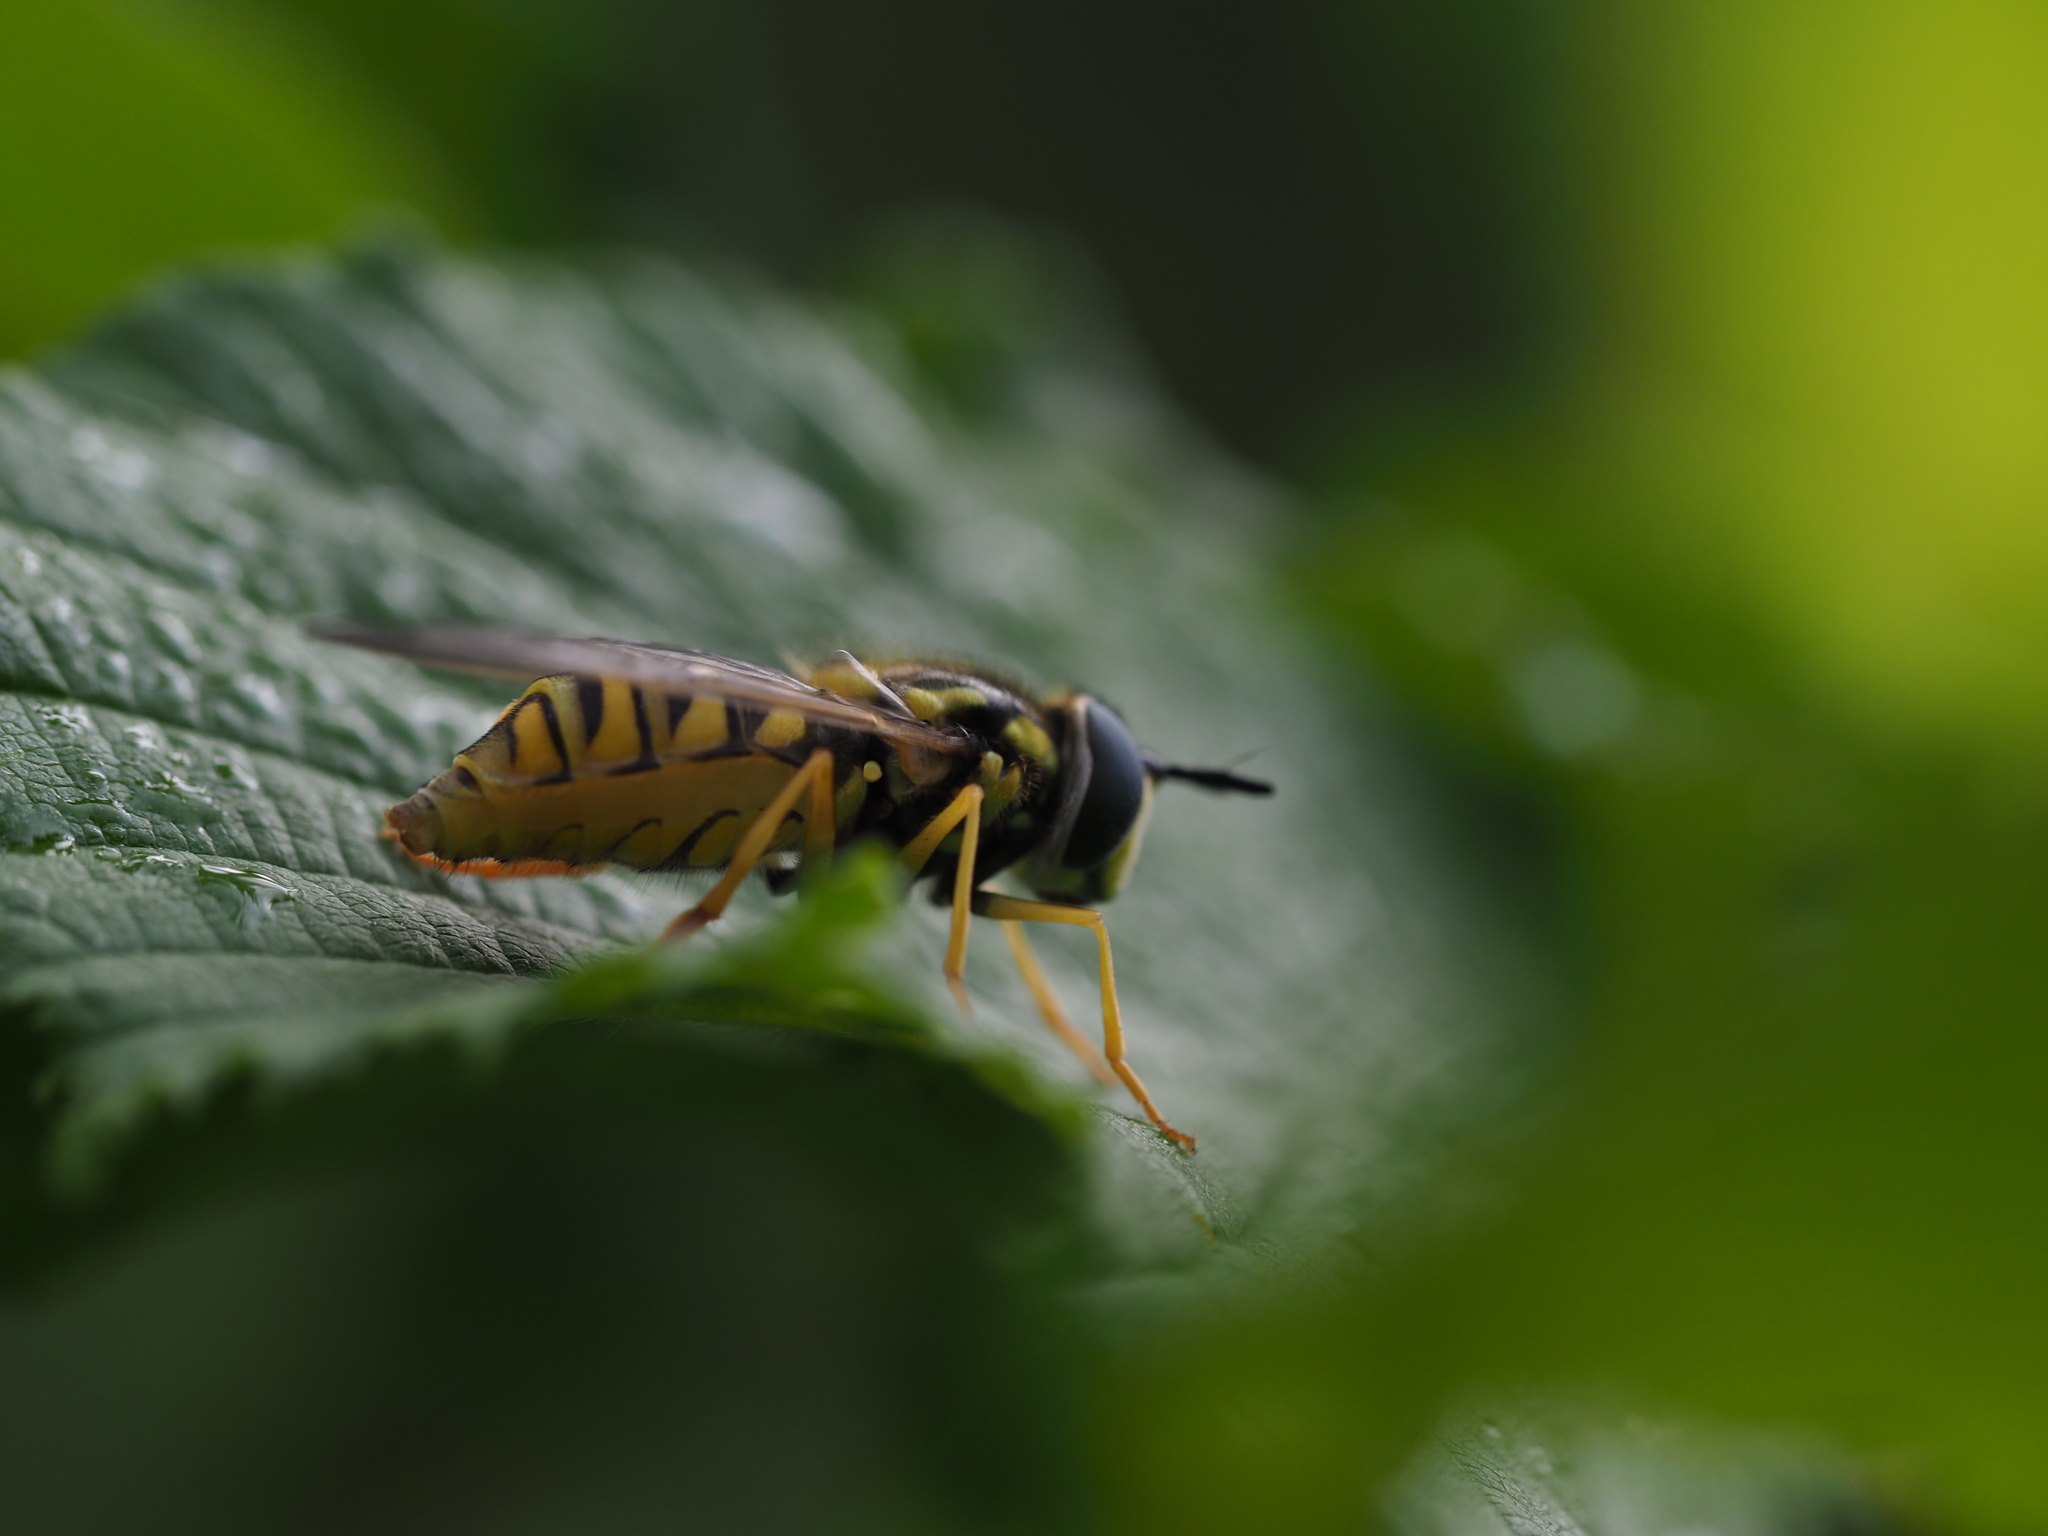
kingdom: Animalia
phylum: Arthropoda
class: Insecta
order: Diptera
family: Syrphidae
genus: Chrysotoxum
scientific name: Chrysotoxum cautum
